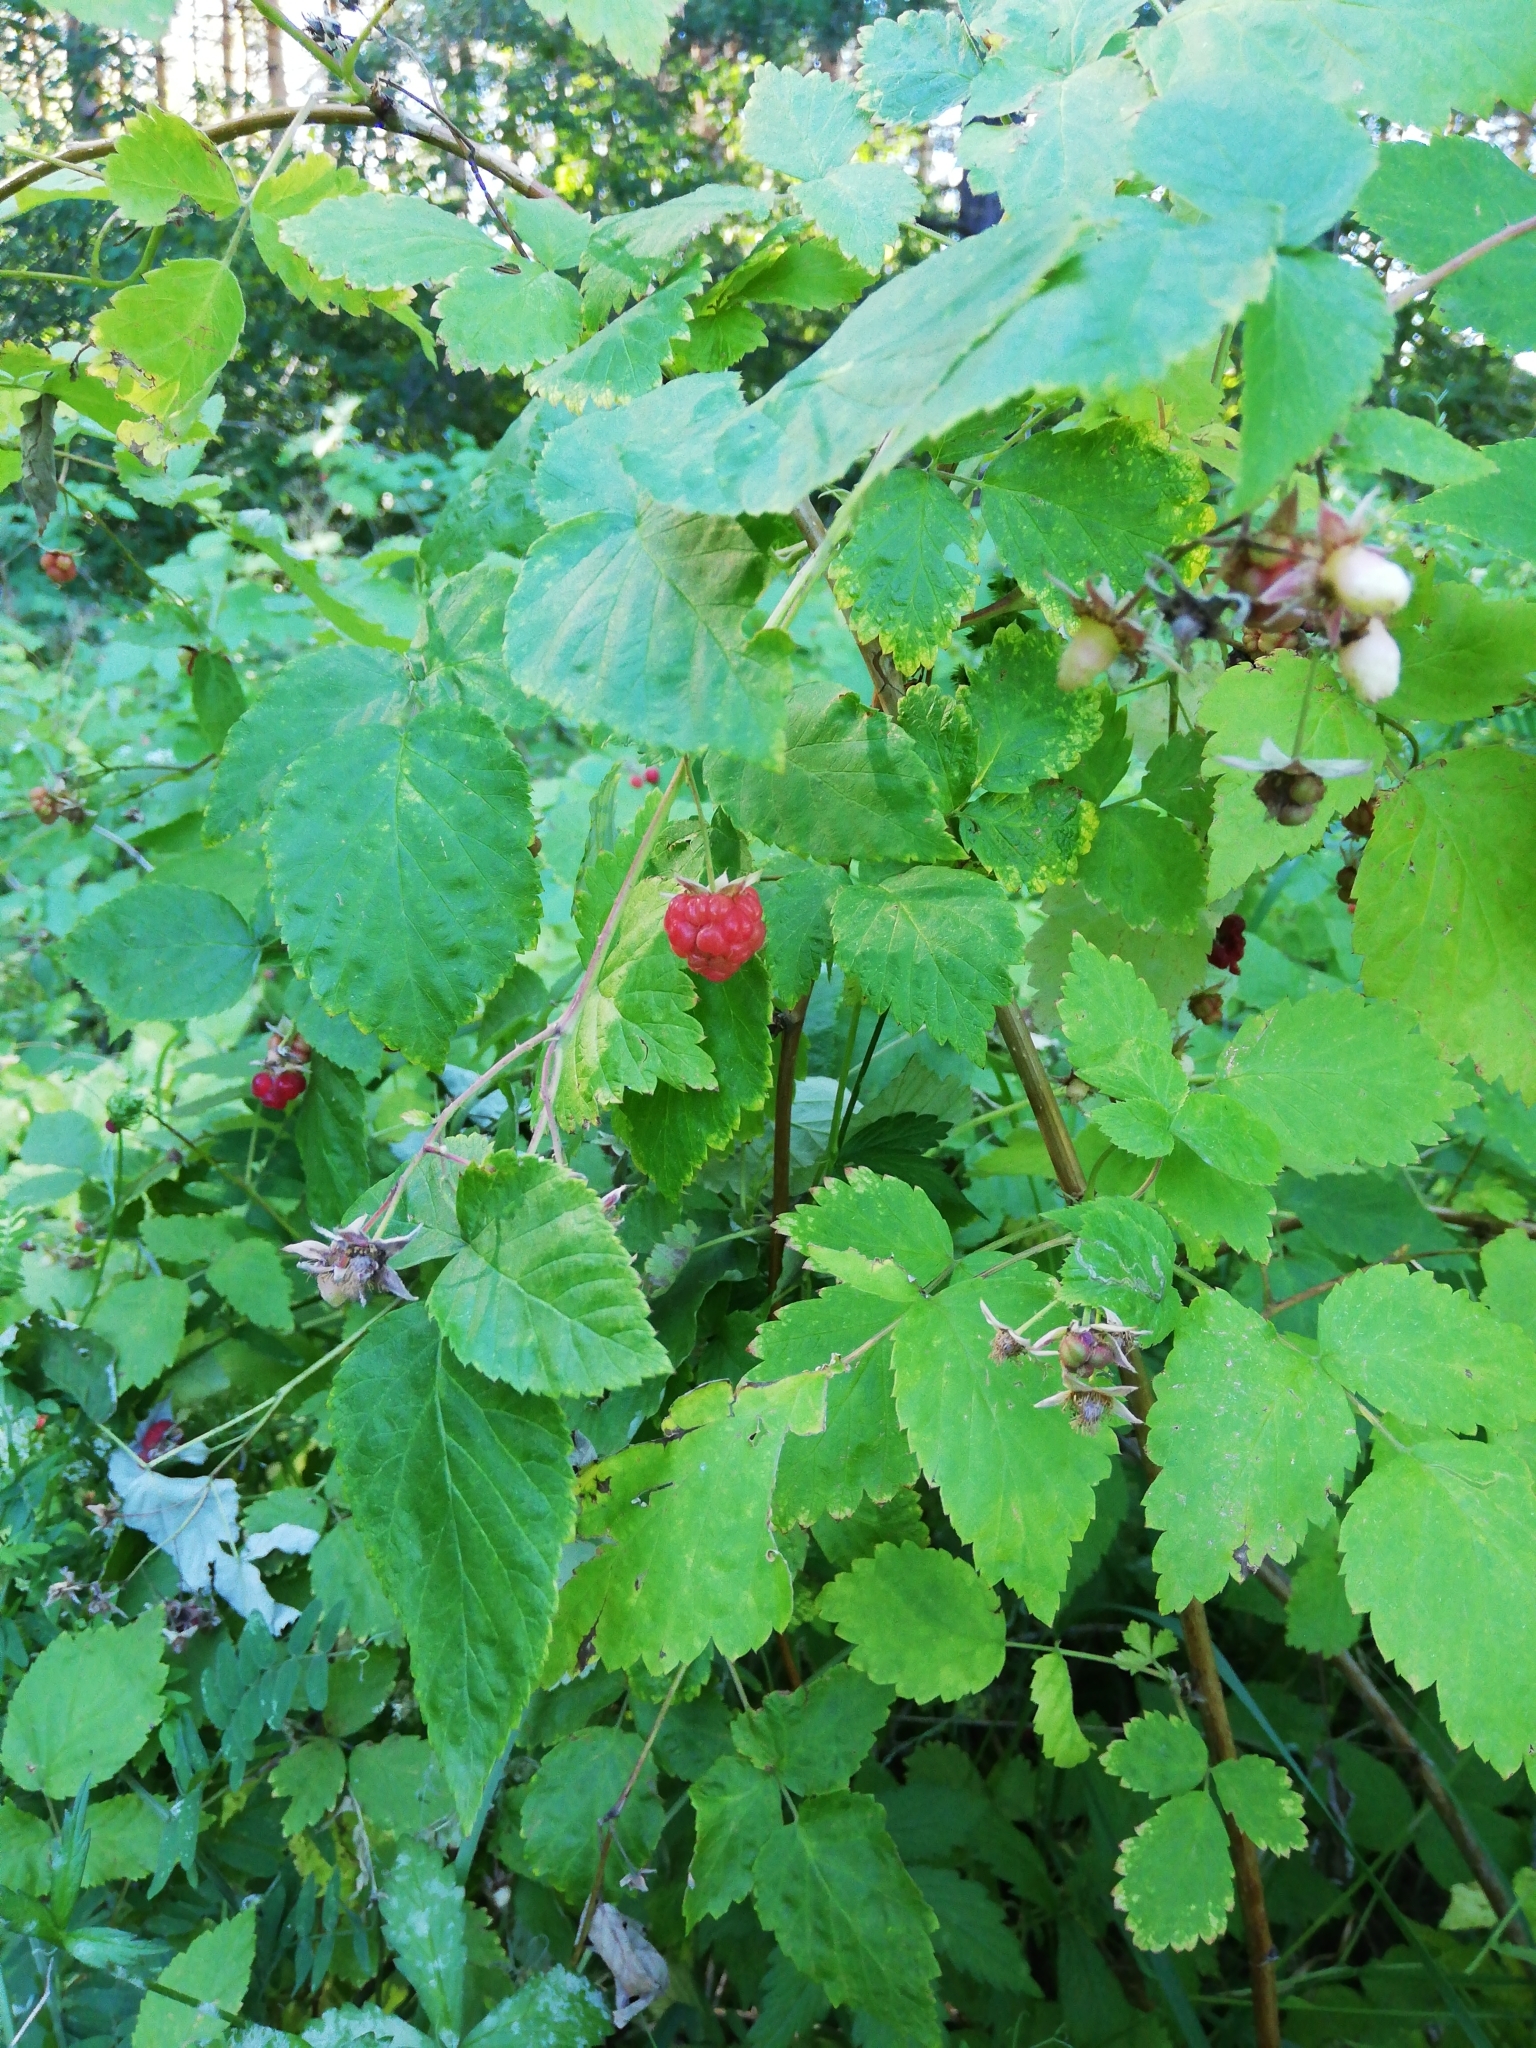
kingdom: Plantae
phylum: Tracheophyta
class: Magnoliopsida
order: Rosales
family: Rosaceae
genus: Rubus
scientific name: Rubus idaeus
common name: Raspberry
